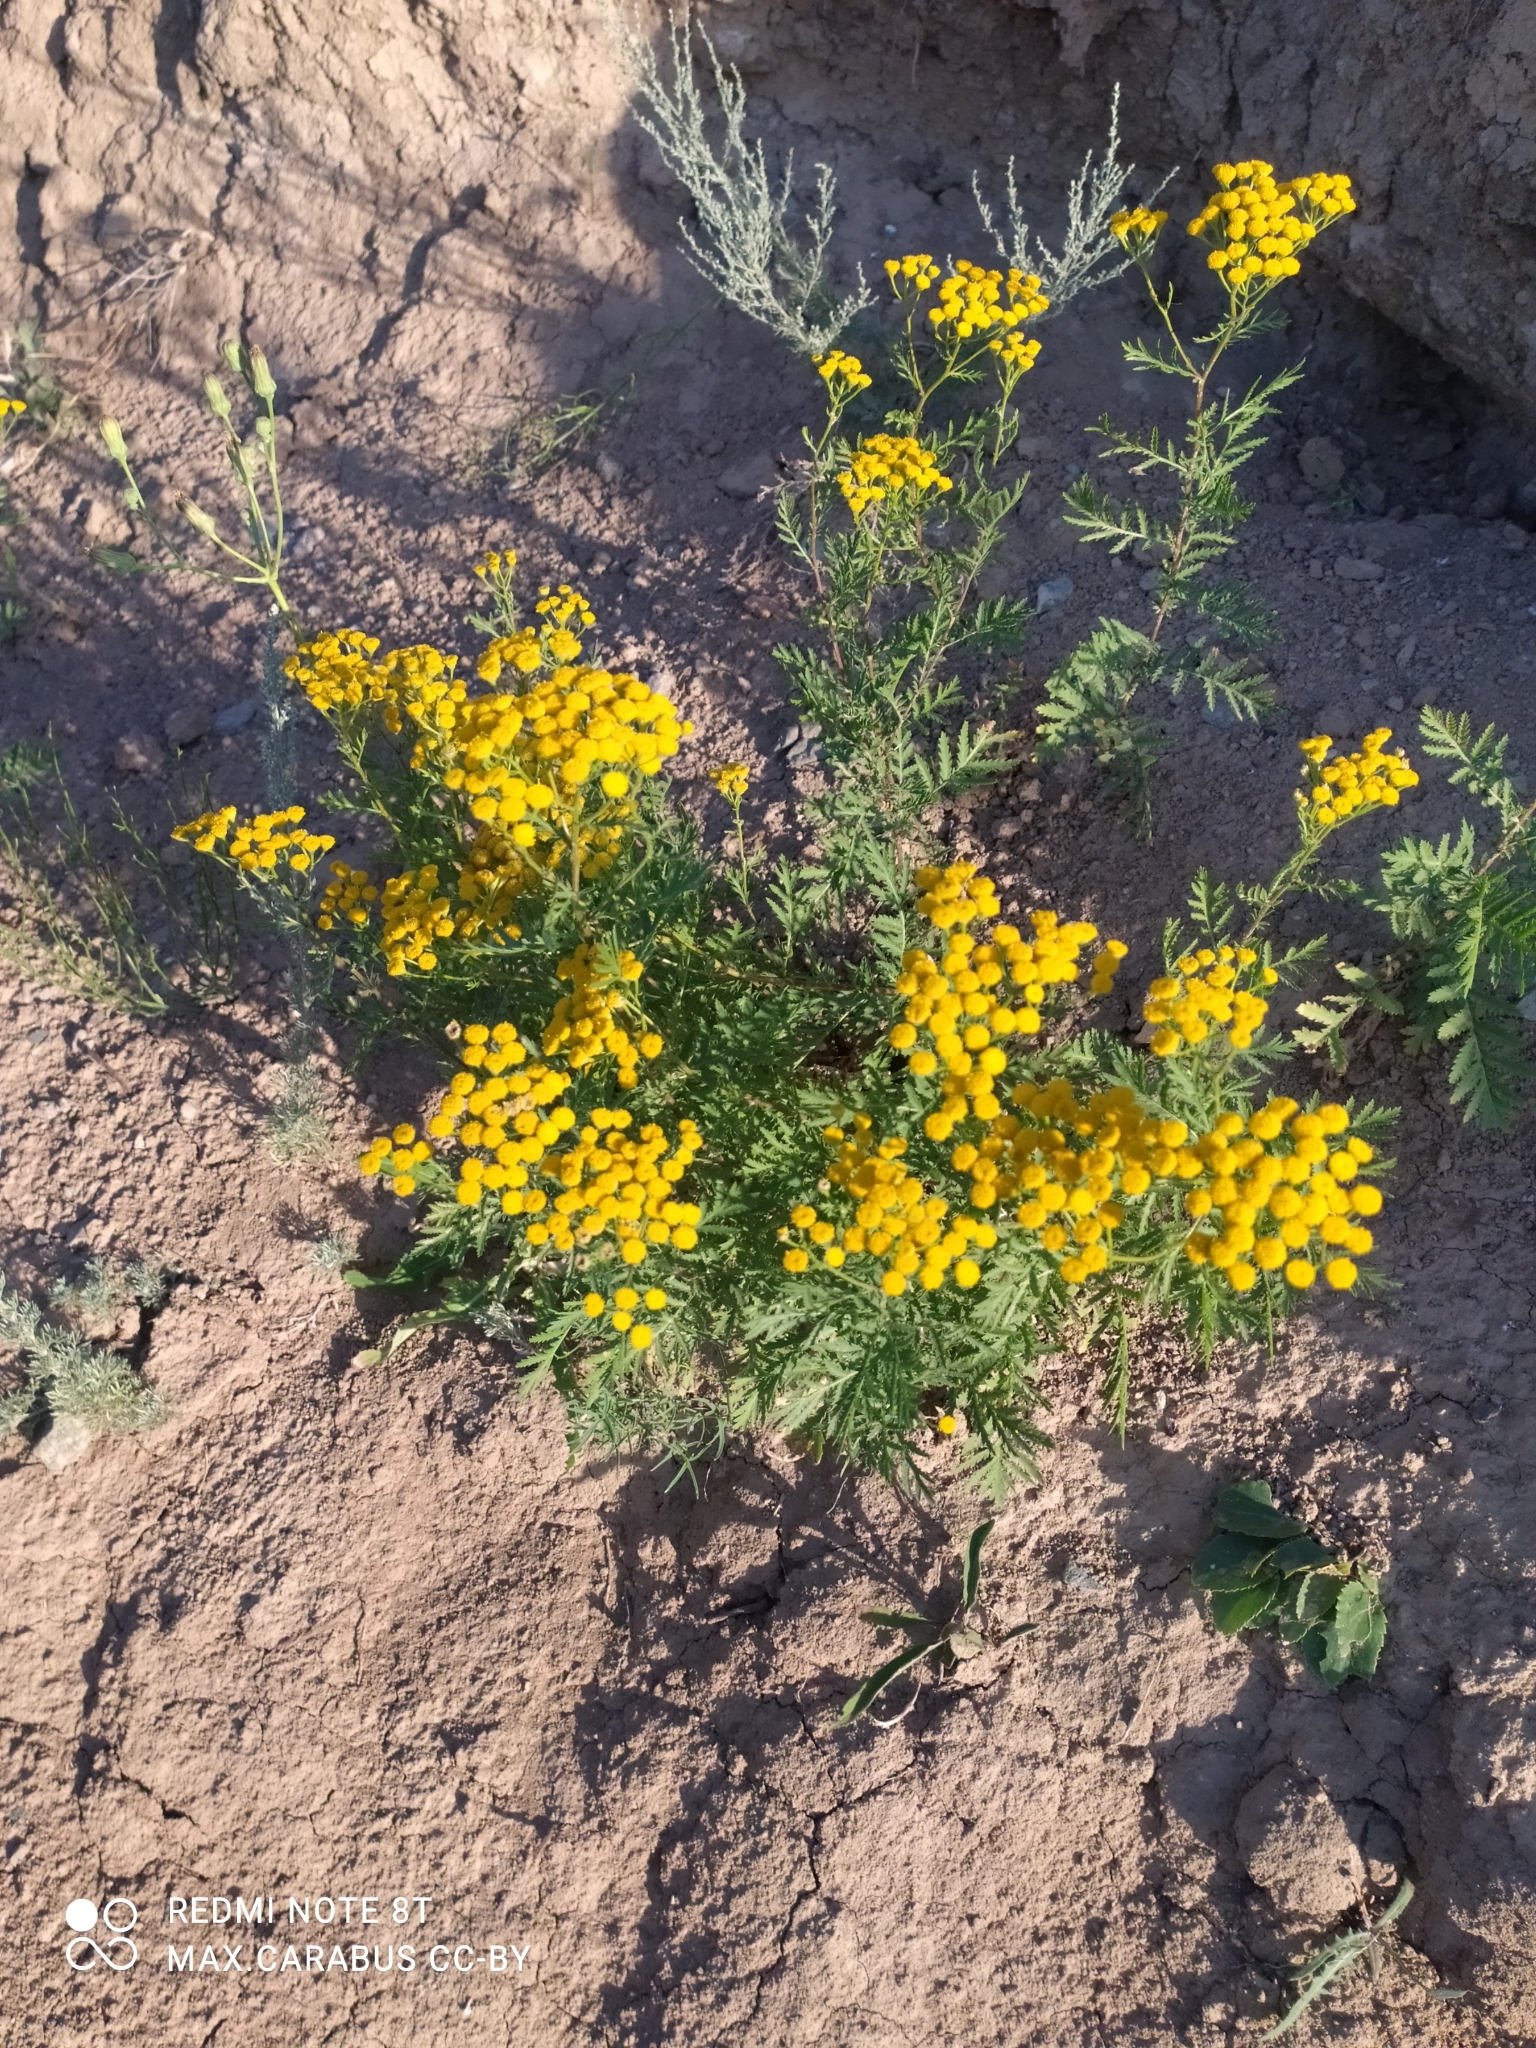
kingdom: Plantae
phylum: Tracheophyta
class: Magnoliopsida
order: Asterales
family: Asteraceae
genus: Tanacetum
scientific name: Tanacetum vulgare
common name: Common tansy
